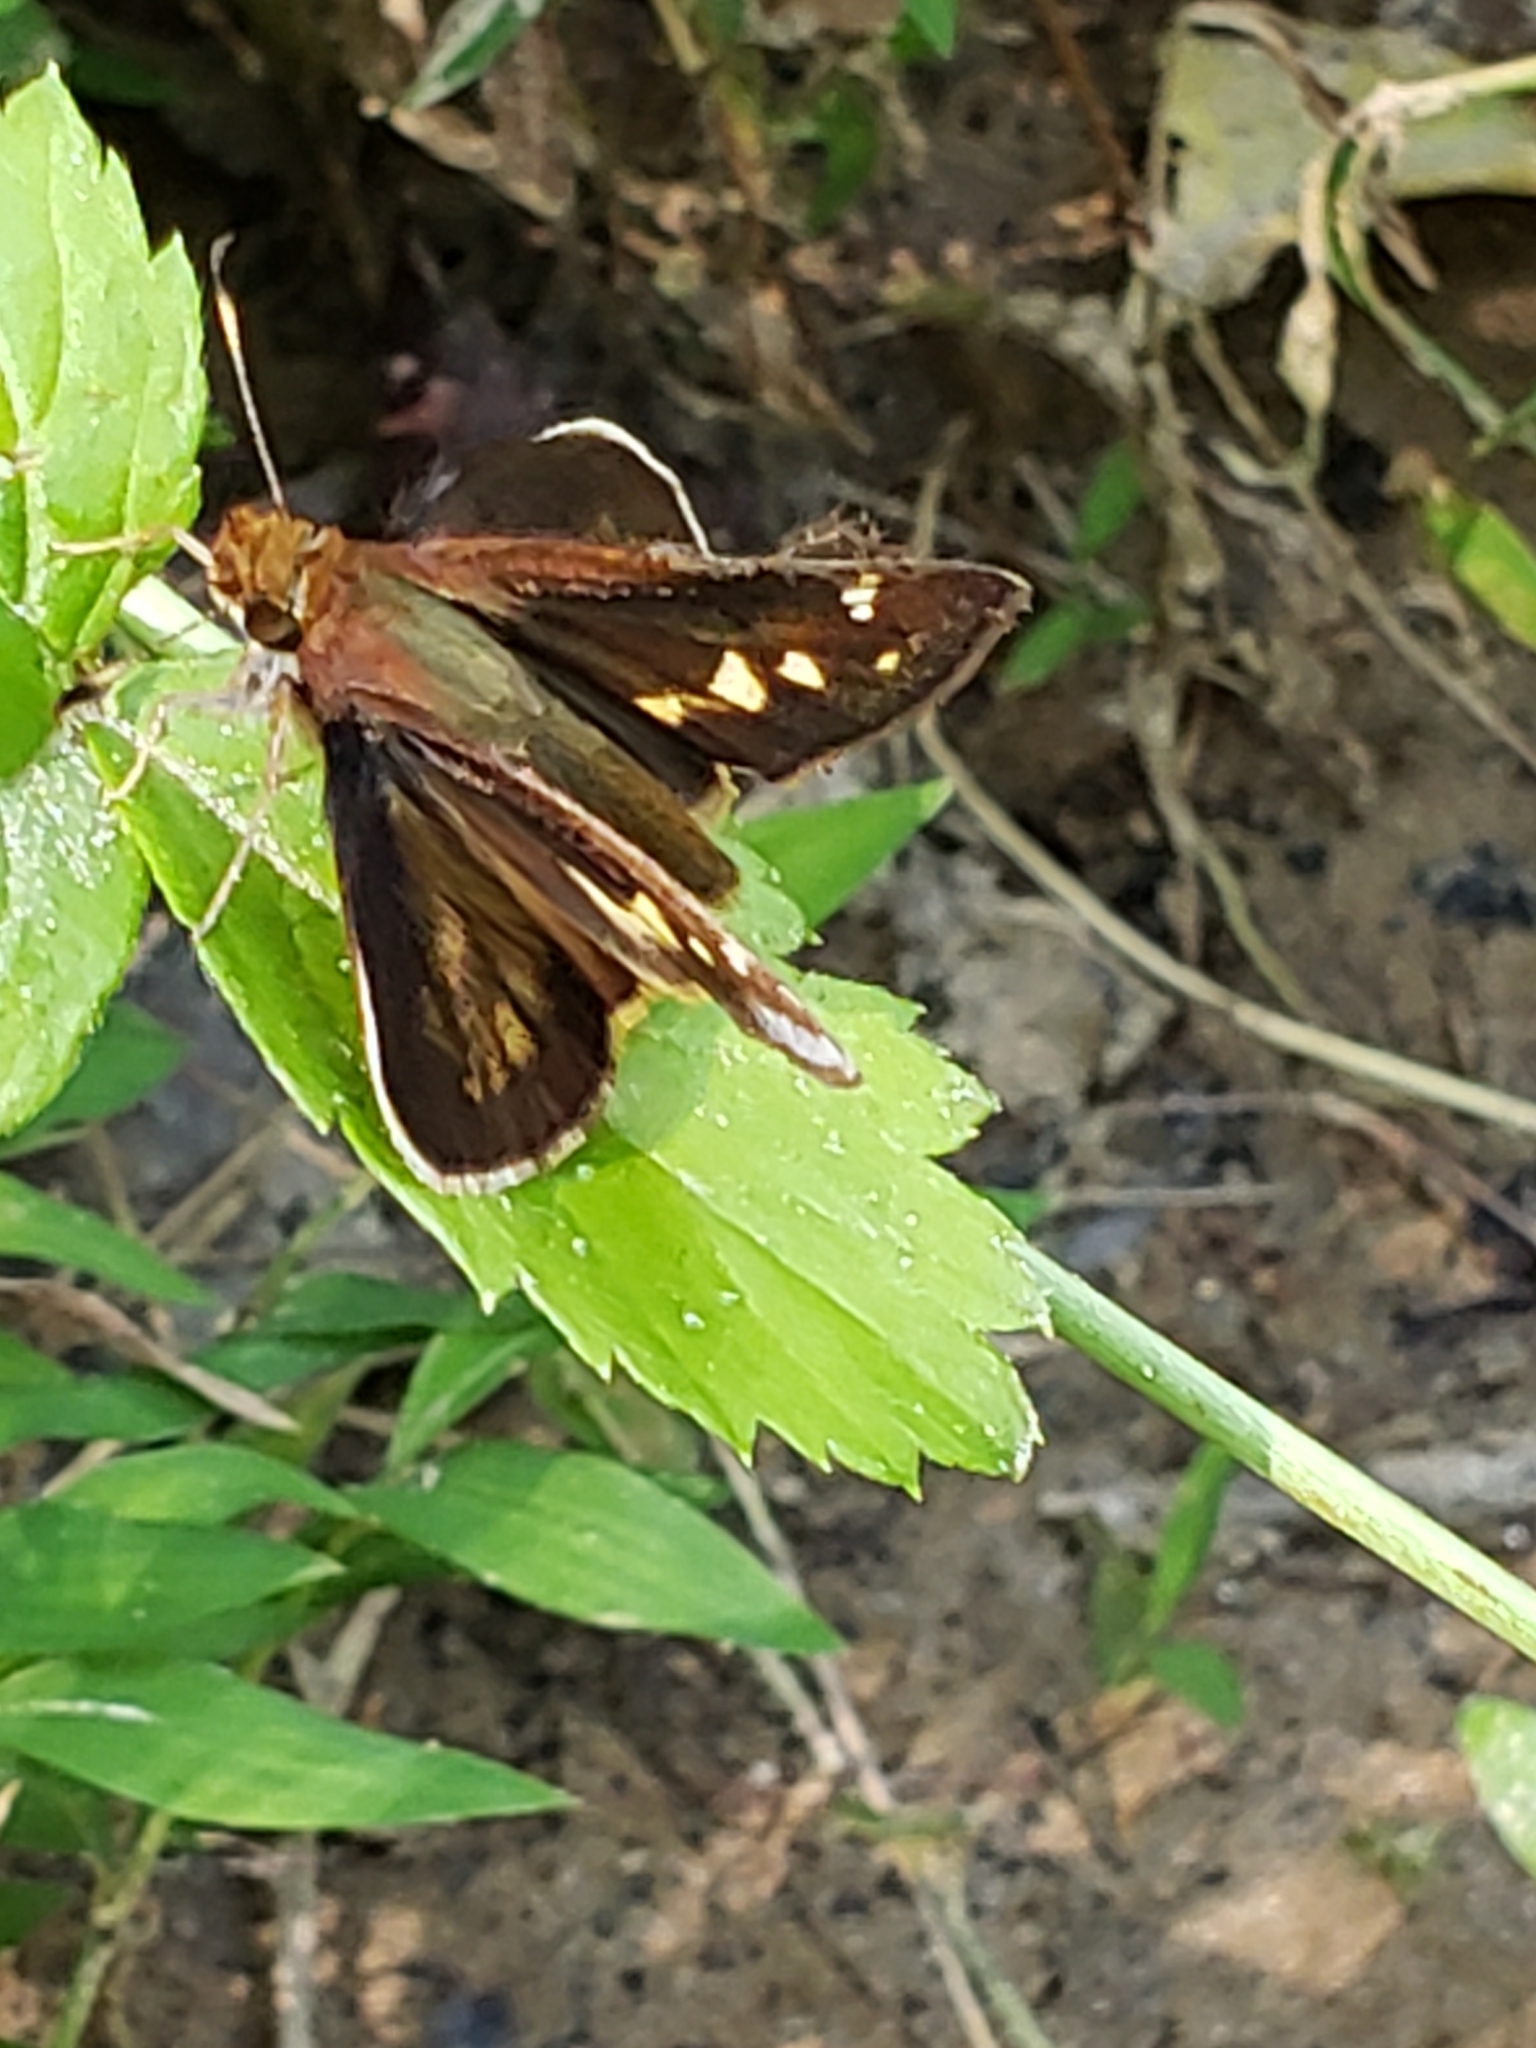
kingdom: Animalia
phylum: Arthropoda
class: Insecta
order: Lepidoptera
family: Hesperiidae
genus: Lon
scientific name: Lon zabulon
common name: Zabulon skipper
